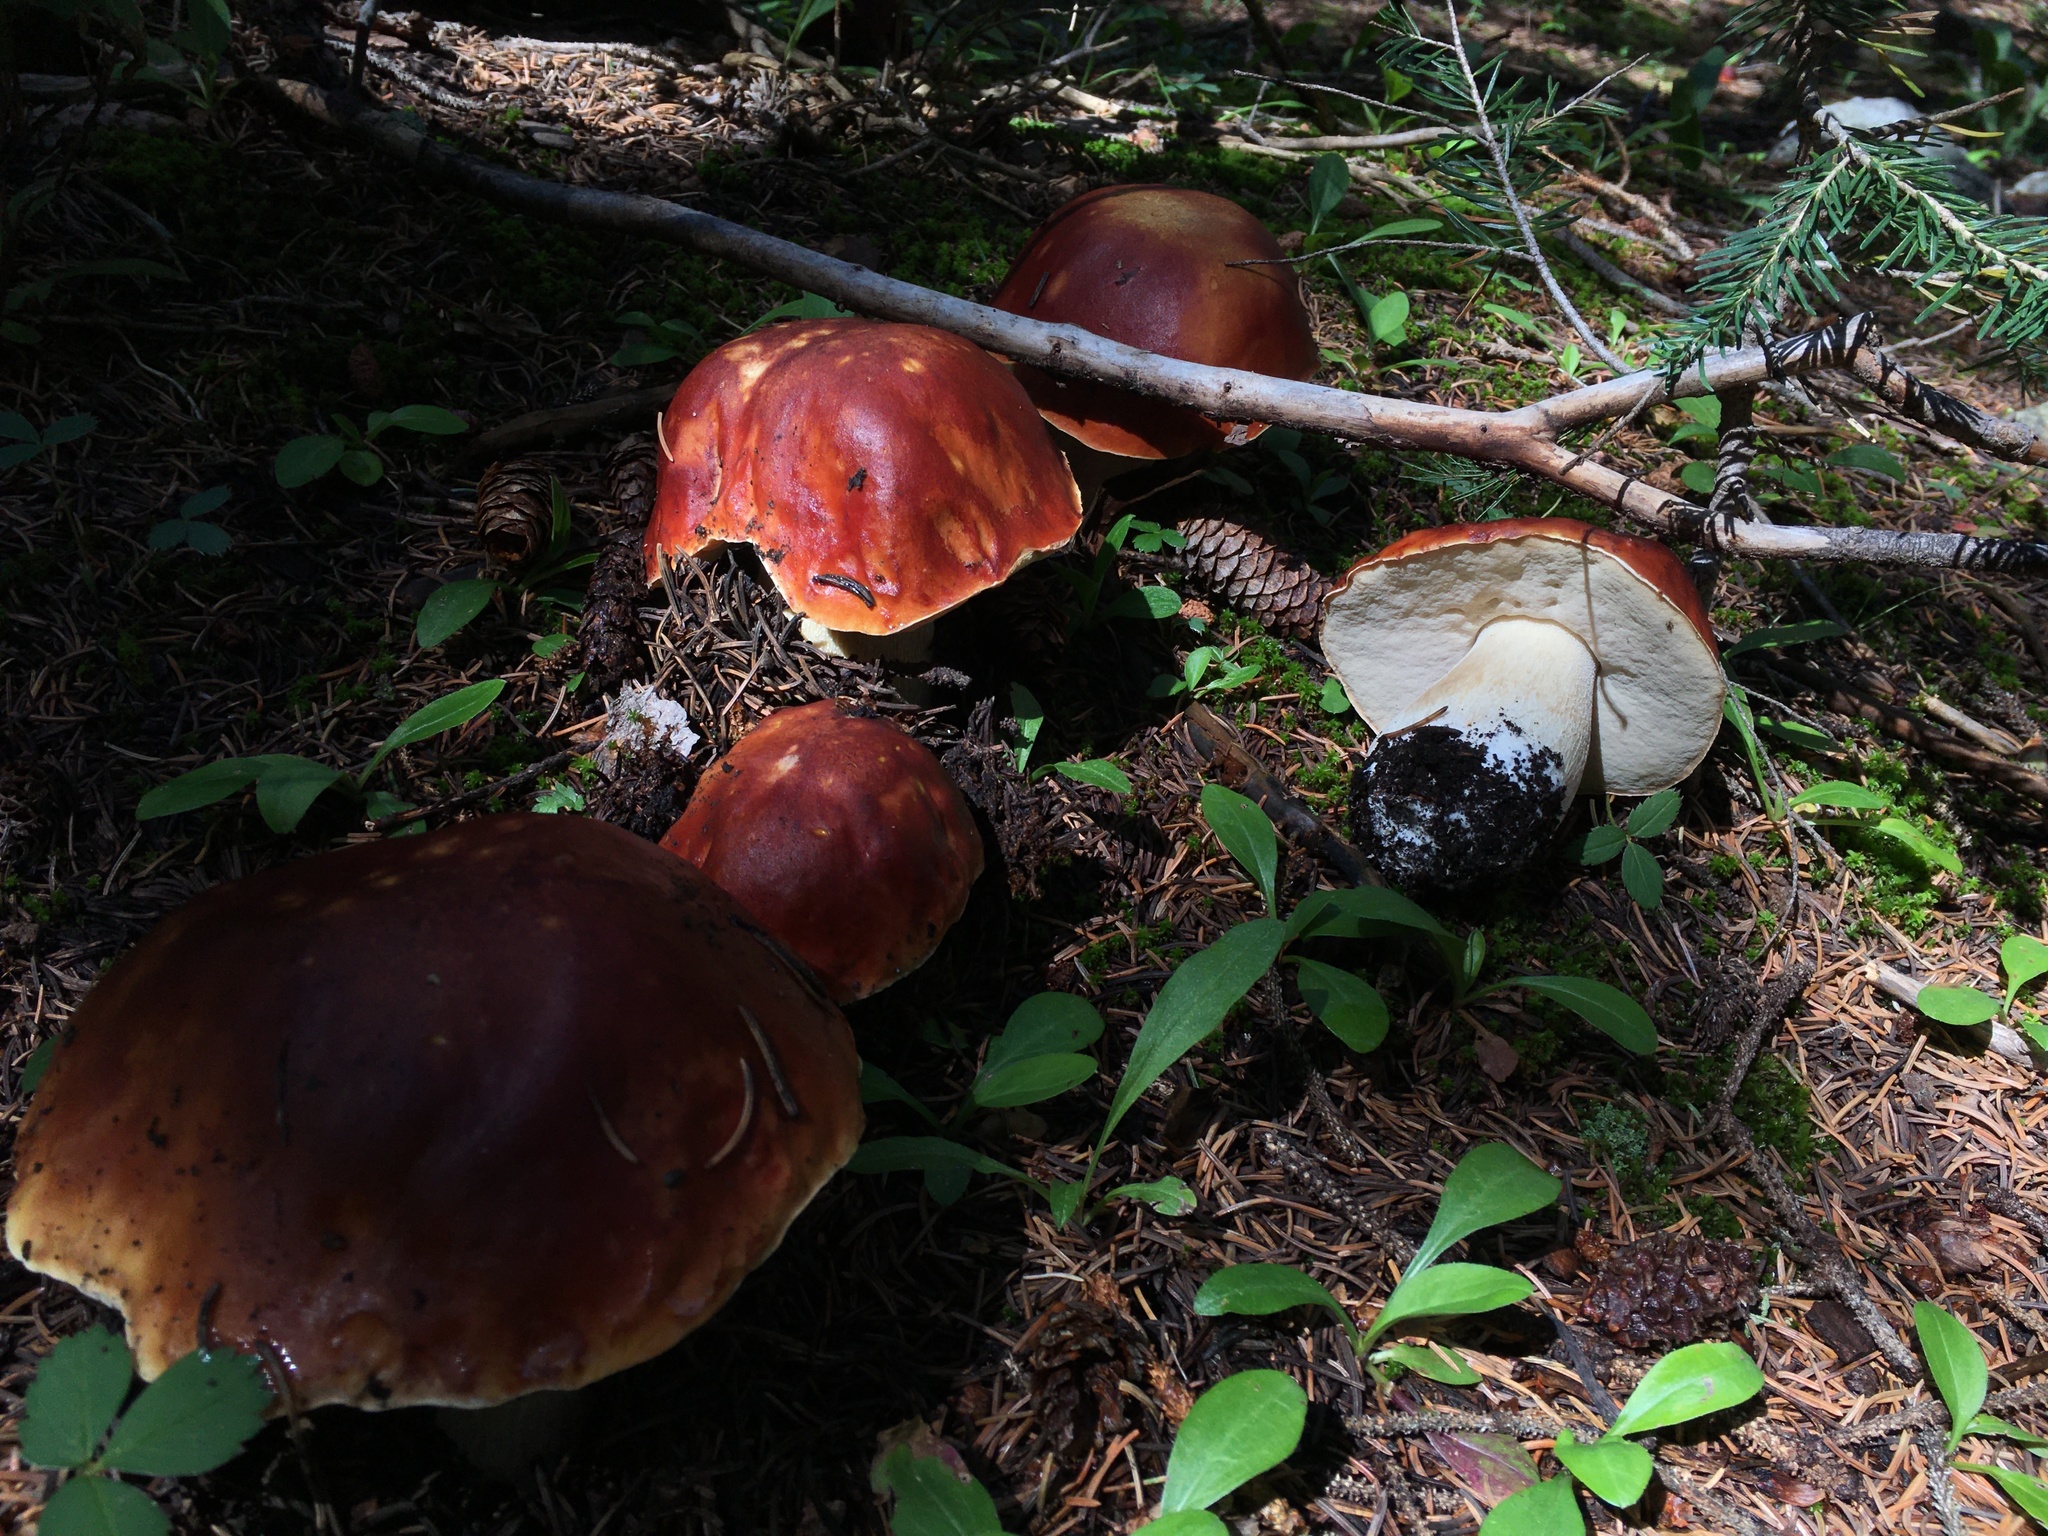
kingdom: Fungi
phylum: Basidiomycota
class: Agaricomycetes
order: Boletales
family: Boletaceae
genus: Boletus
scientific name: Boletus rubriceps
